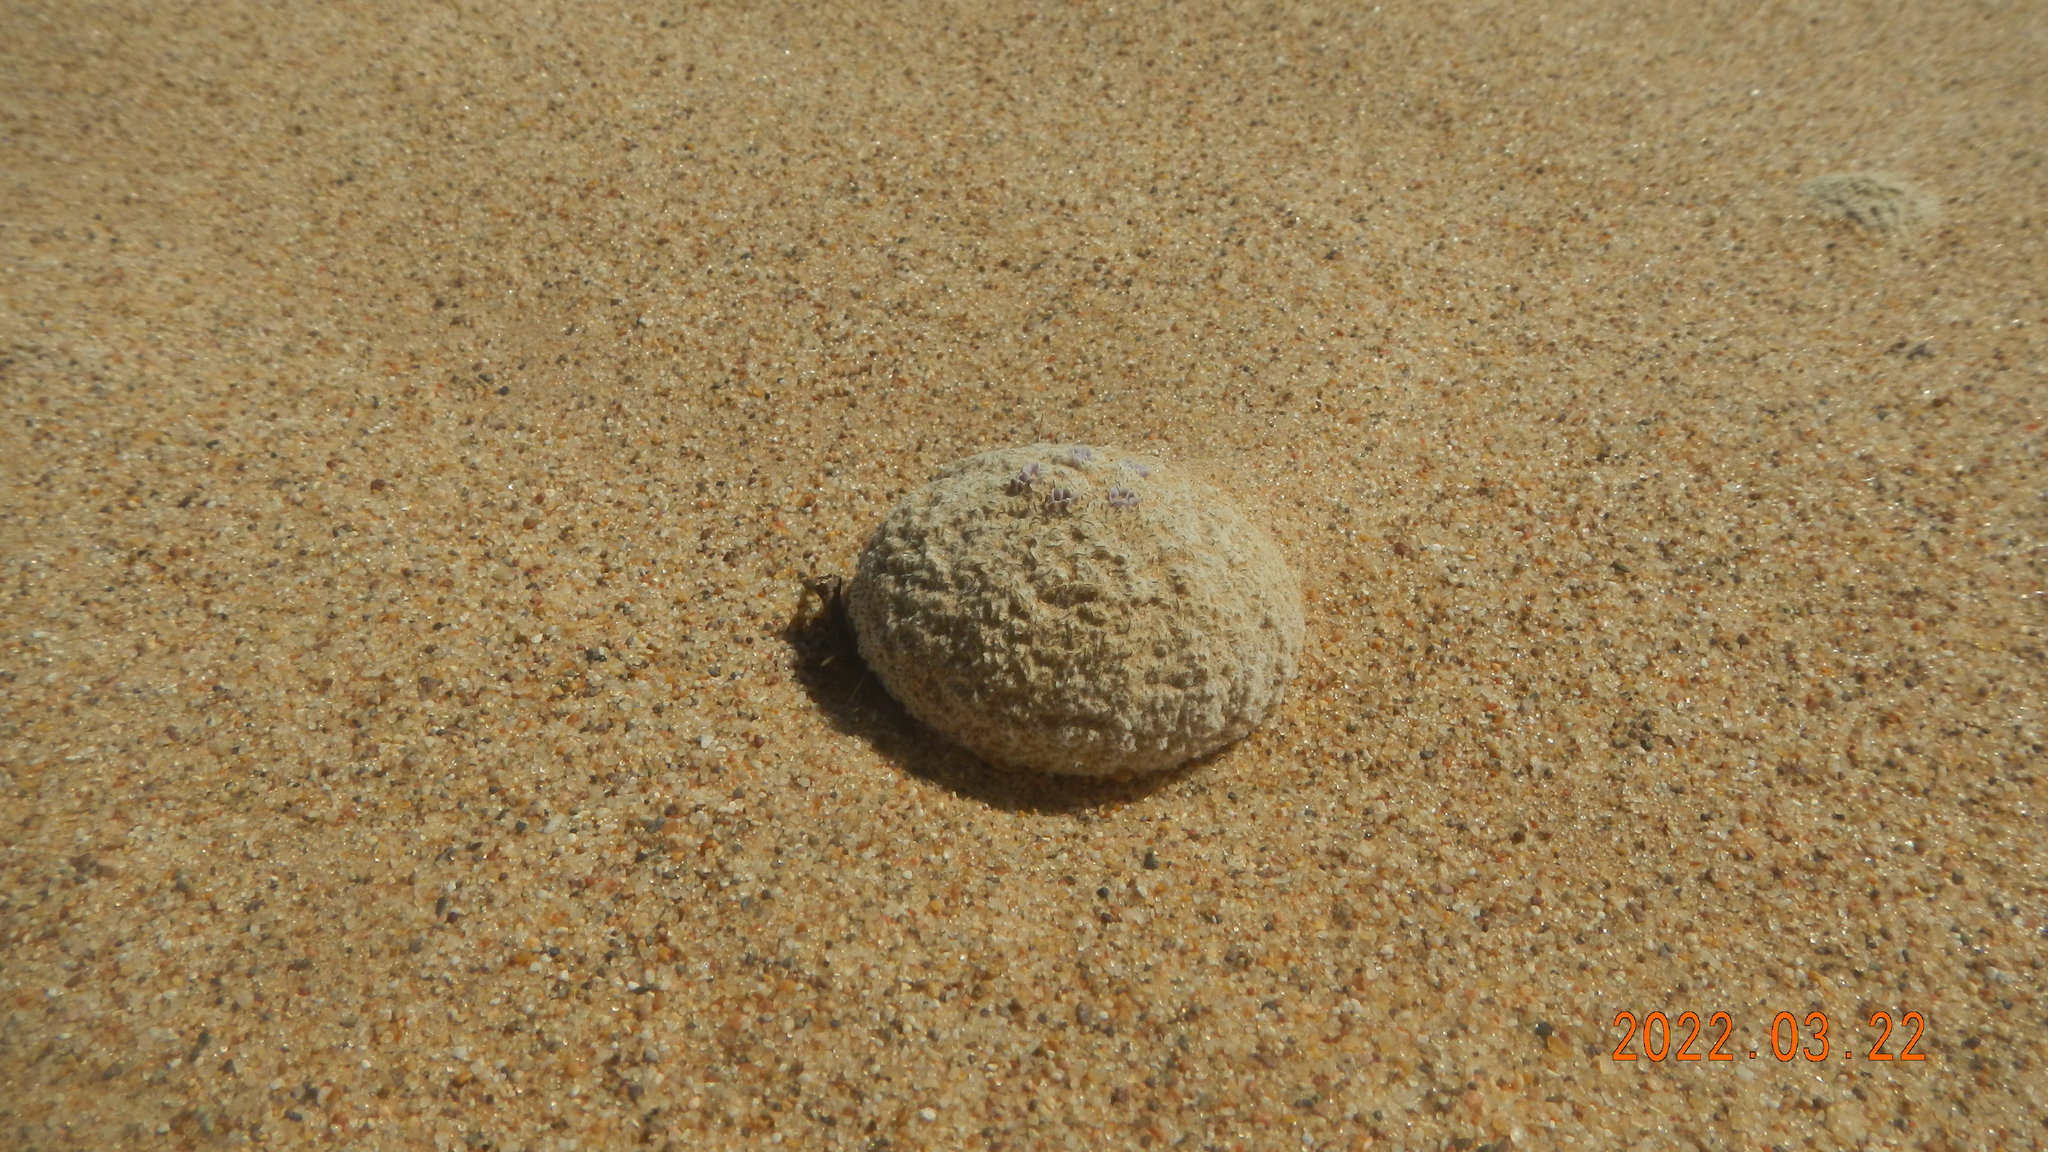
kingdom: Plantae
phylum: Tracheophyta
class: Magnoliopsida
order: Boraginales
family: Lennoaceae
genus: Pholisma
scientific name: Pholisma sonorae
